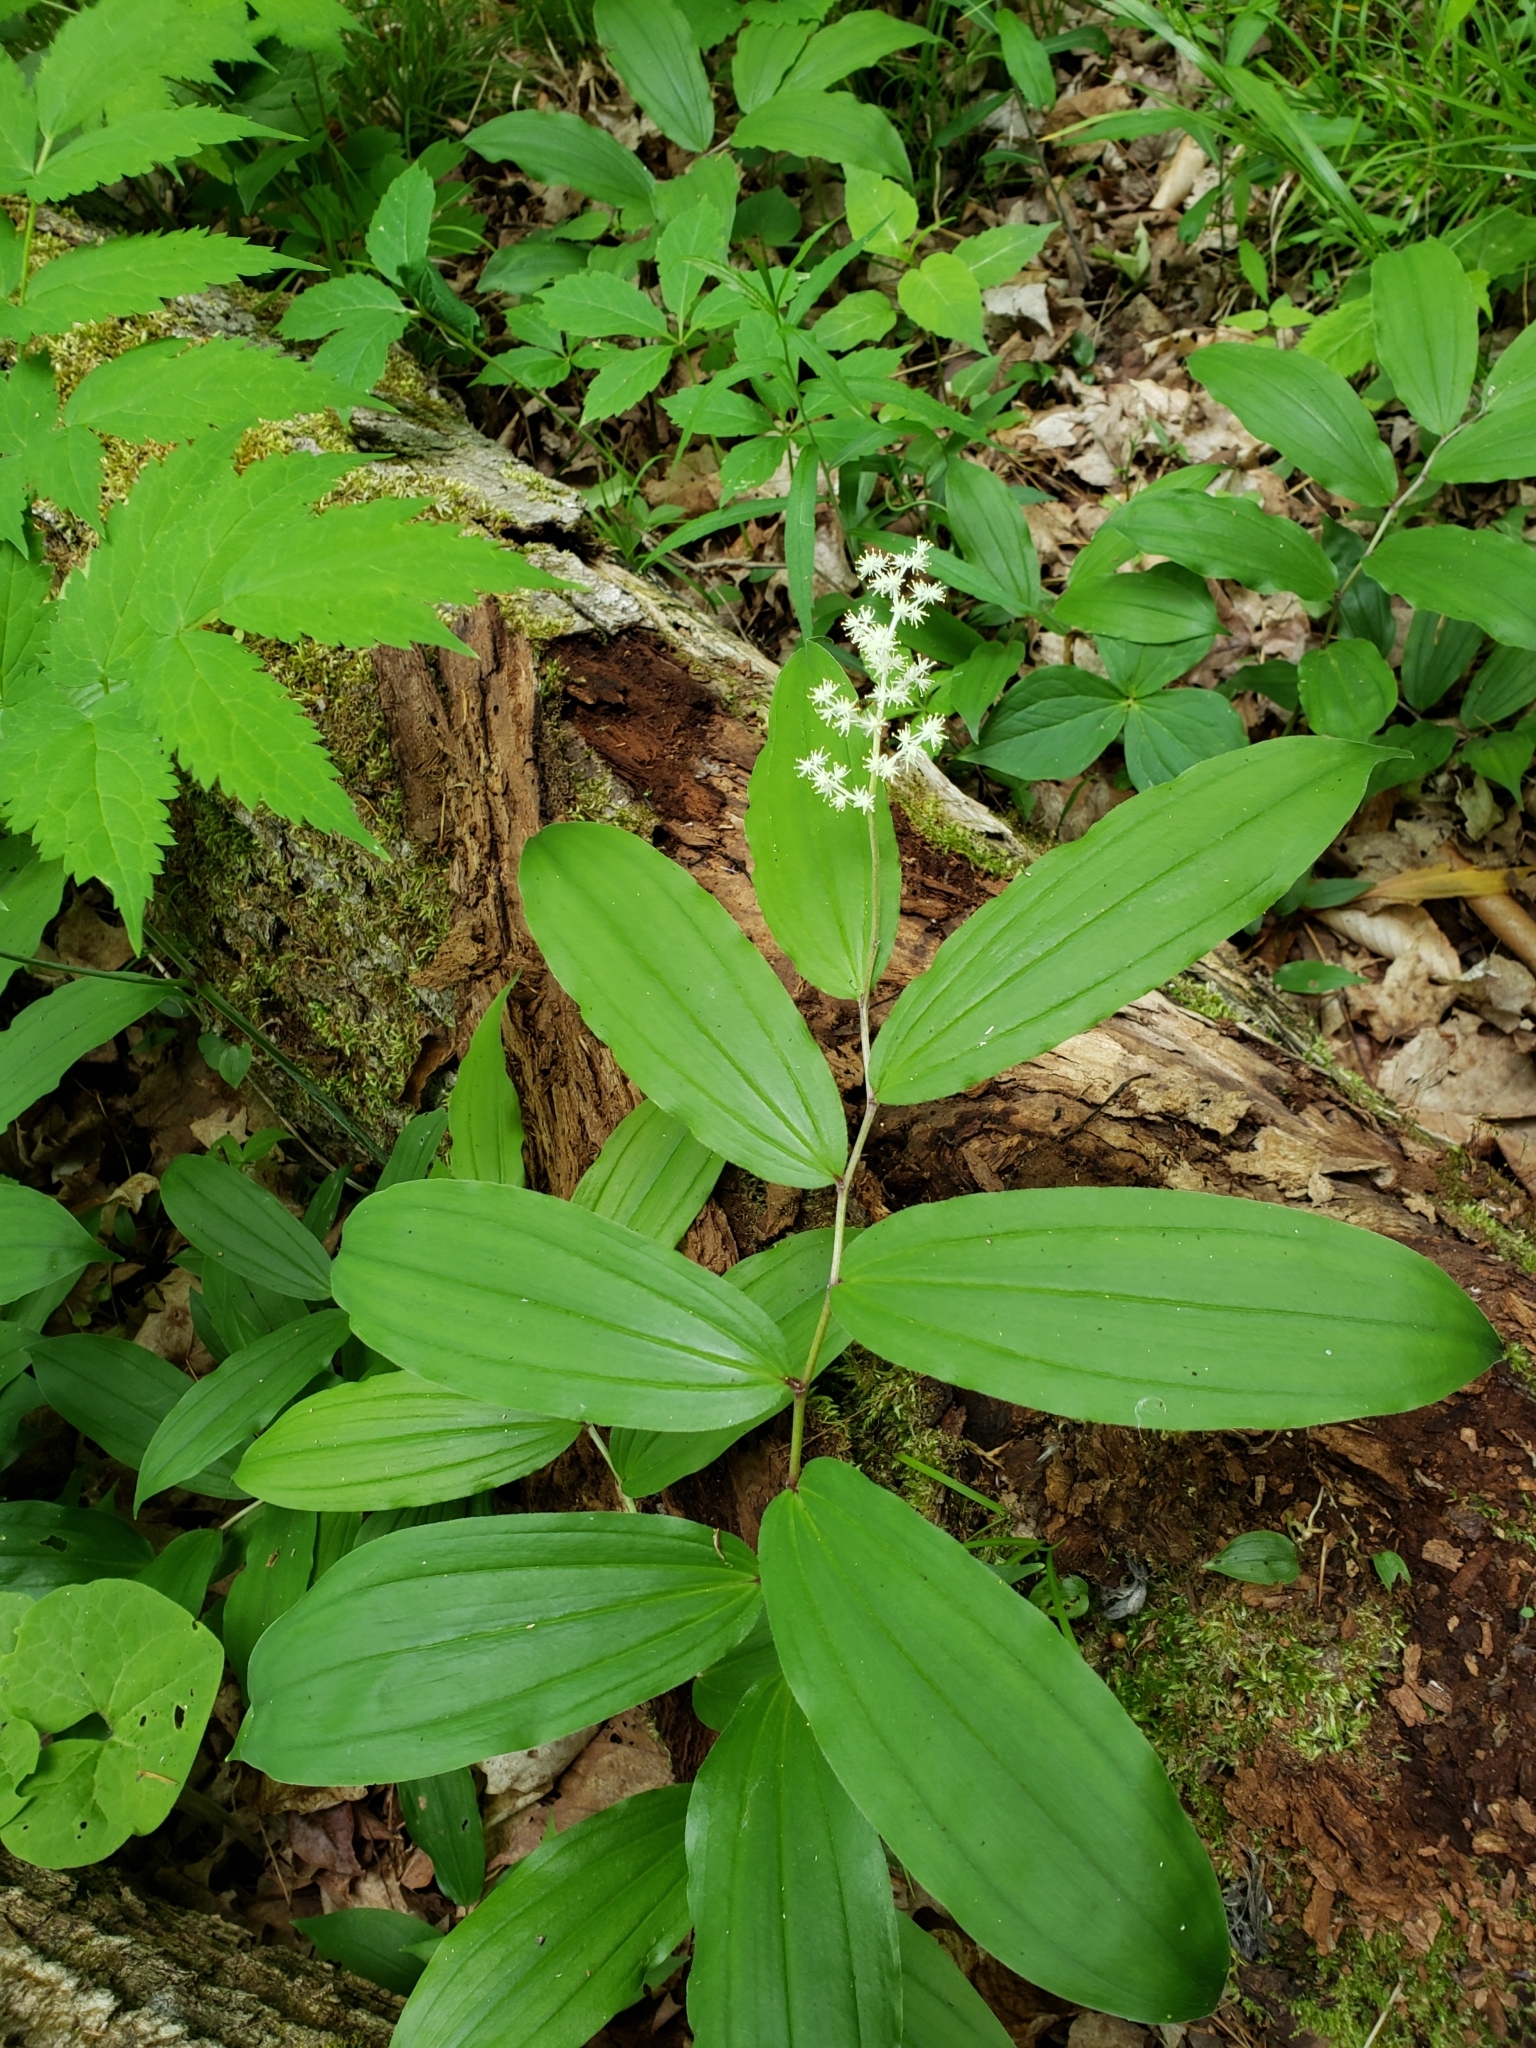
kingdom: Plantae
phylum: Tracheophyta
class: Liliopsida
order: Asparagales
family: Asparagaceae
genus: Maianthemum
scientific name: Maianthemum racemosum
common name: False spikenard
